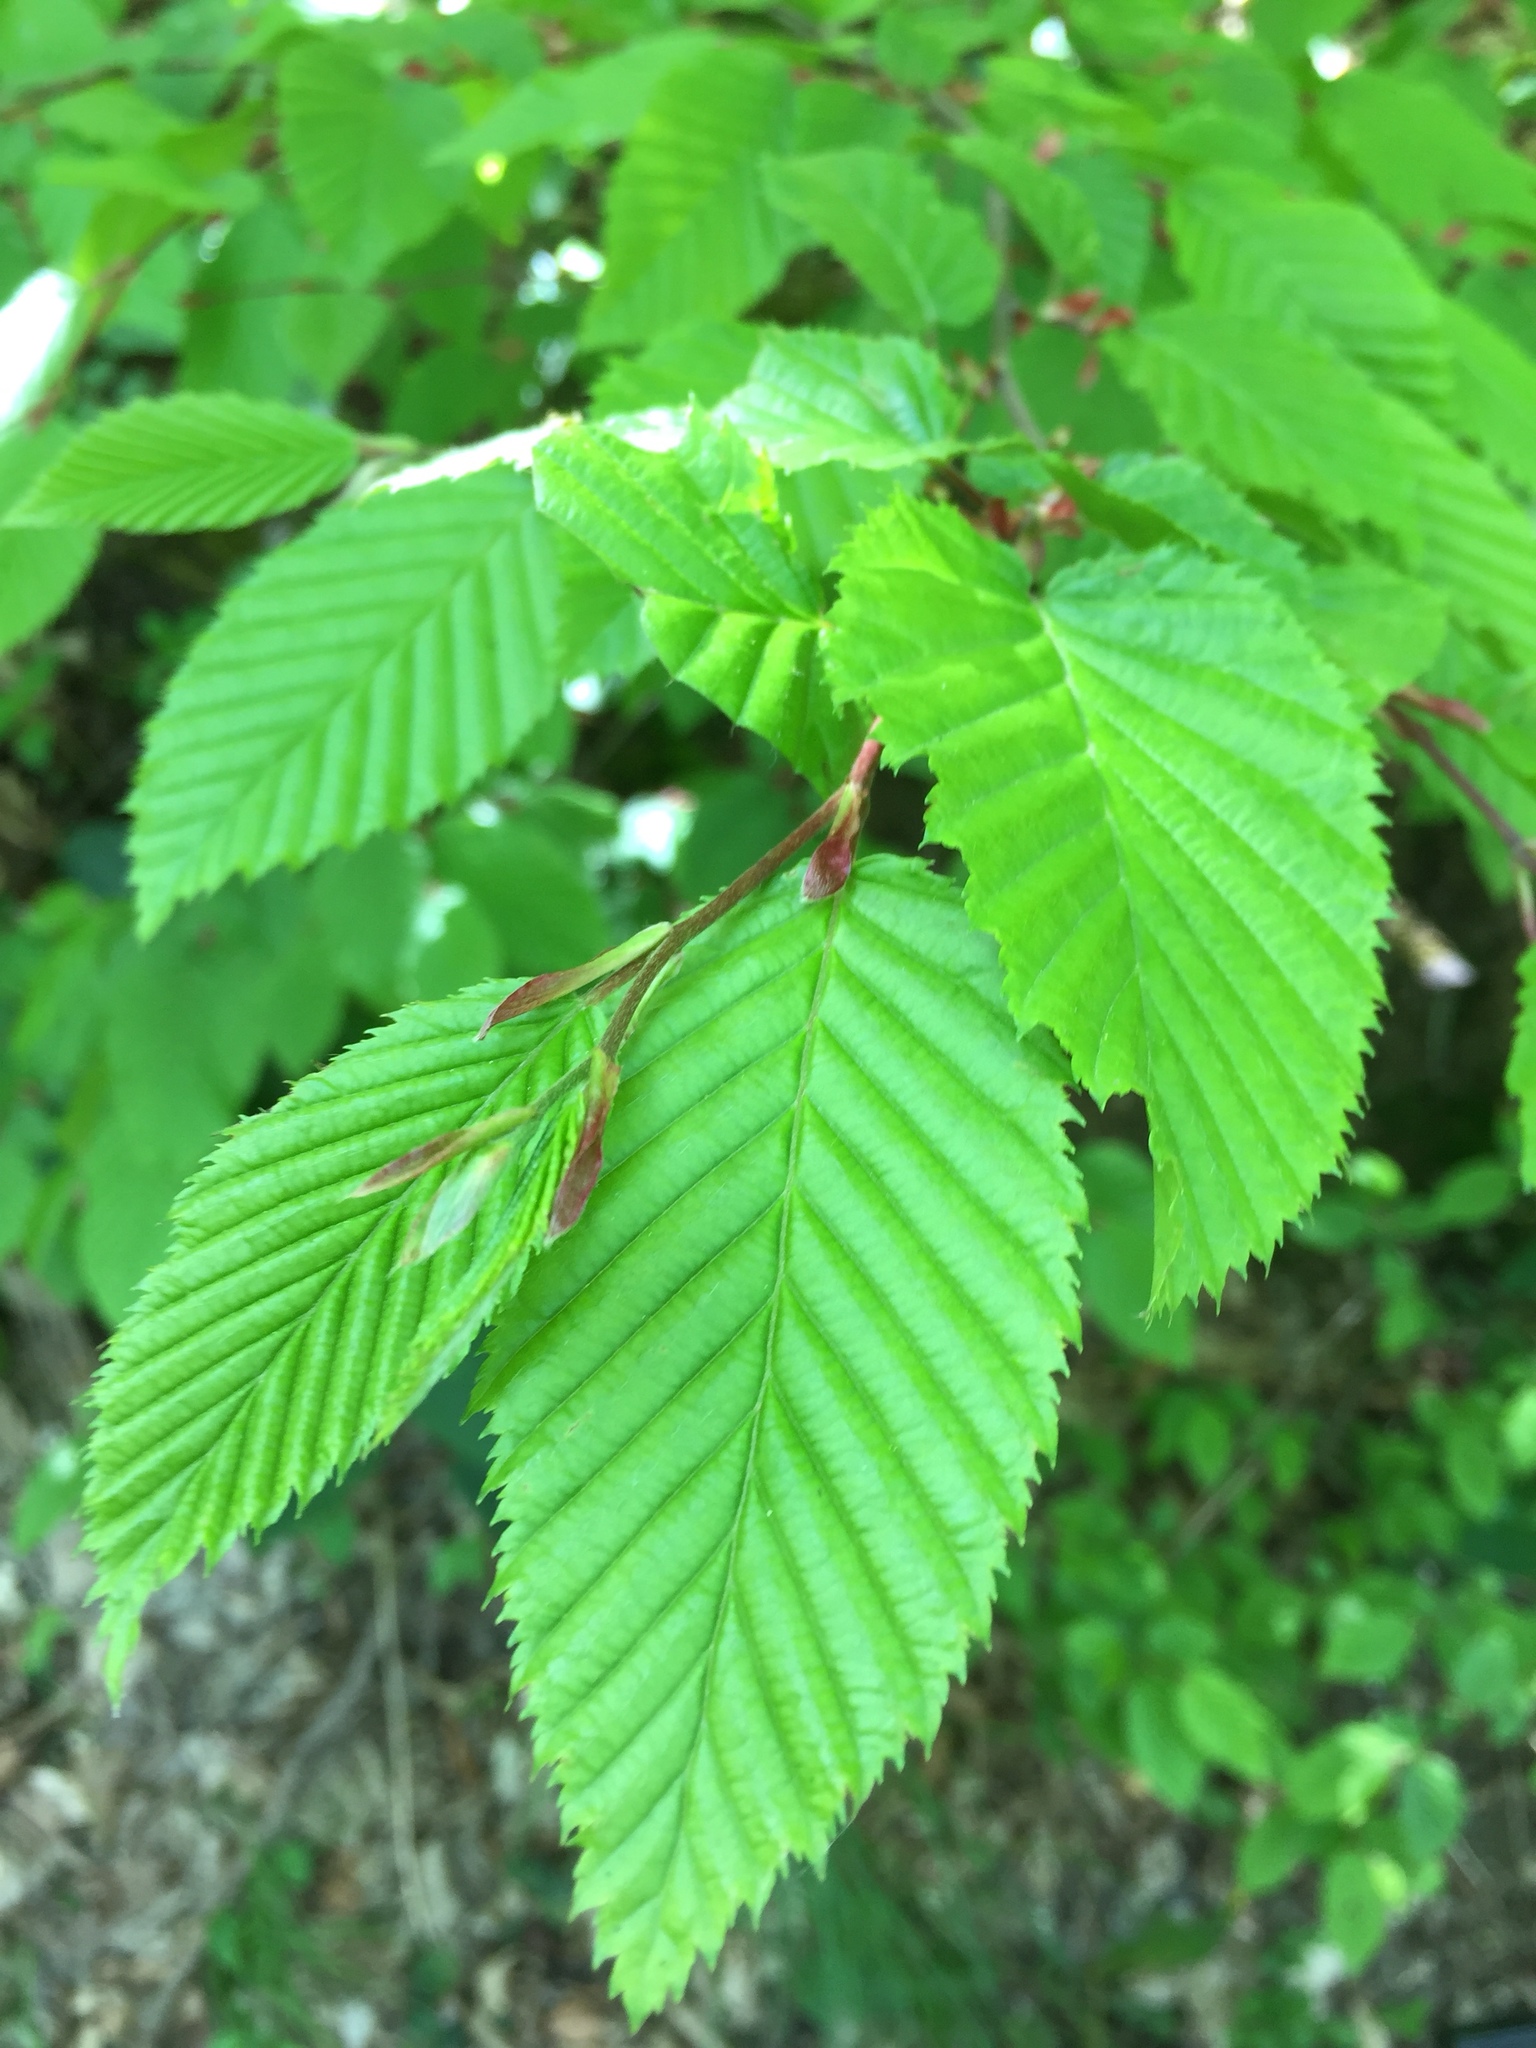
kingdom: Plantae
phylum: Tracheophyta
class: Magnoliopsida
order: Fagales
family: Betulaceae
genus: Carpinus
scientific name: Carpinus betulus
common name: Hornbeam
